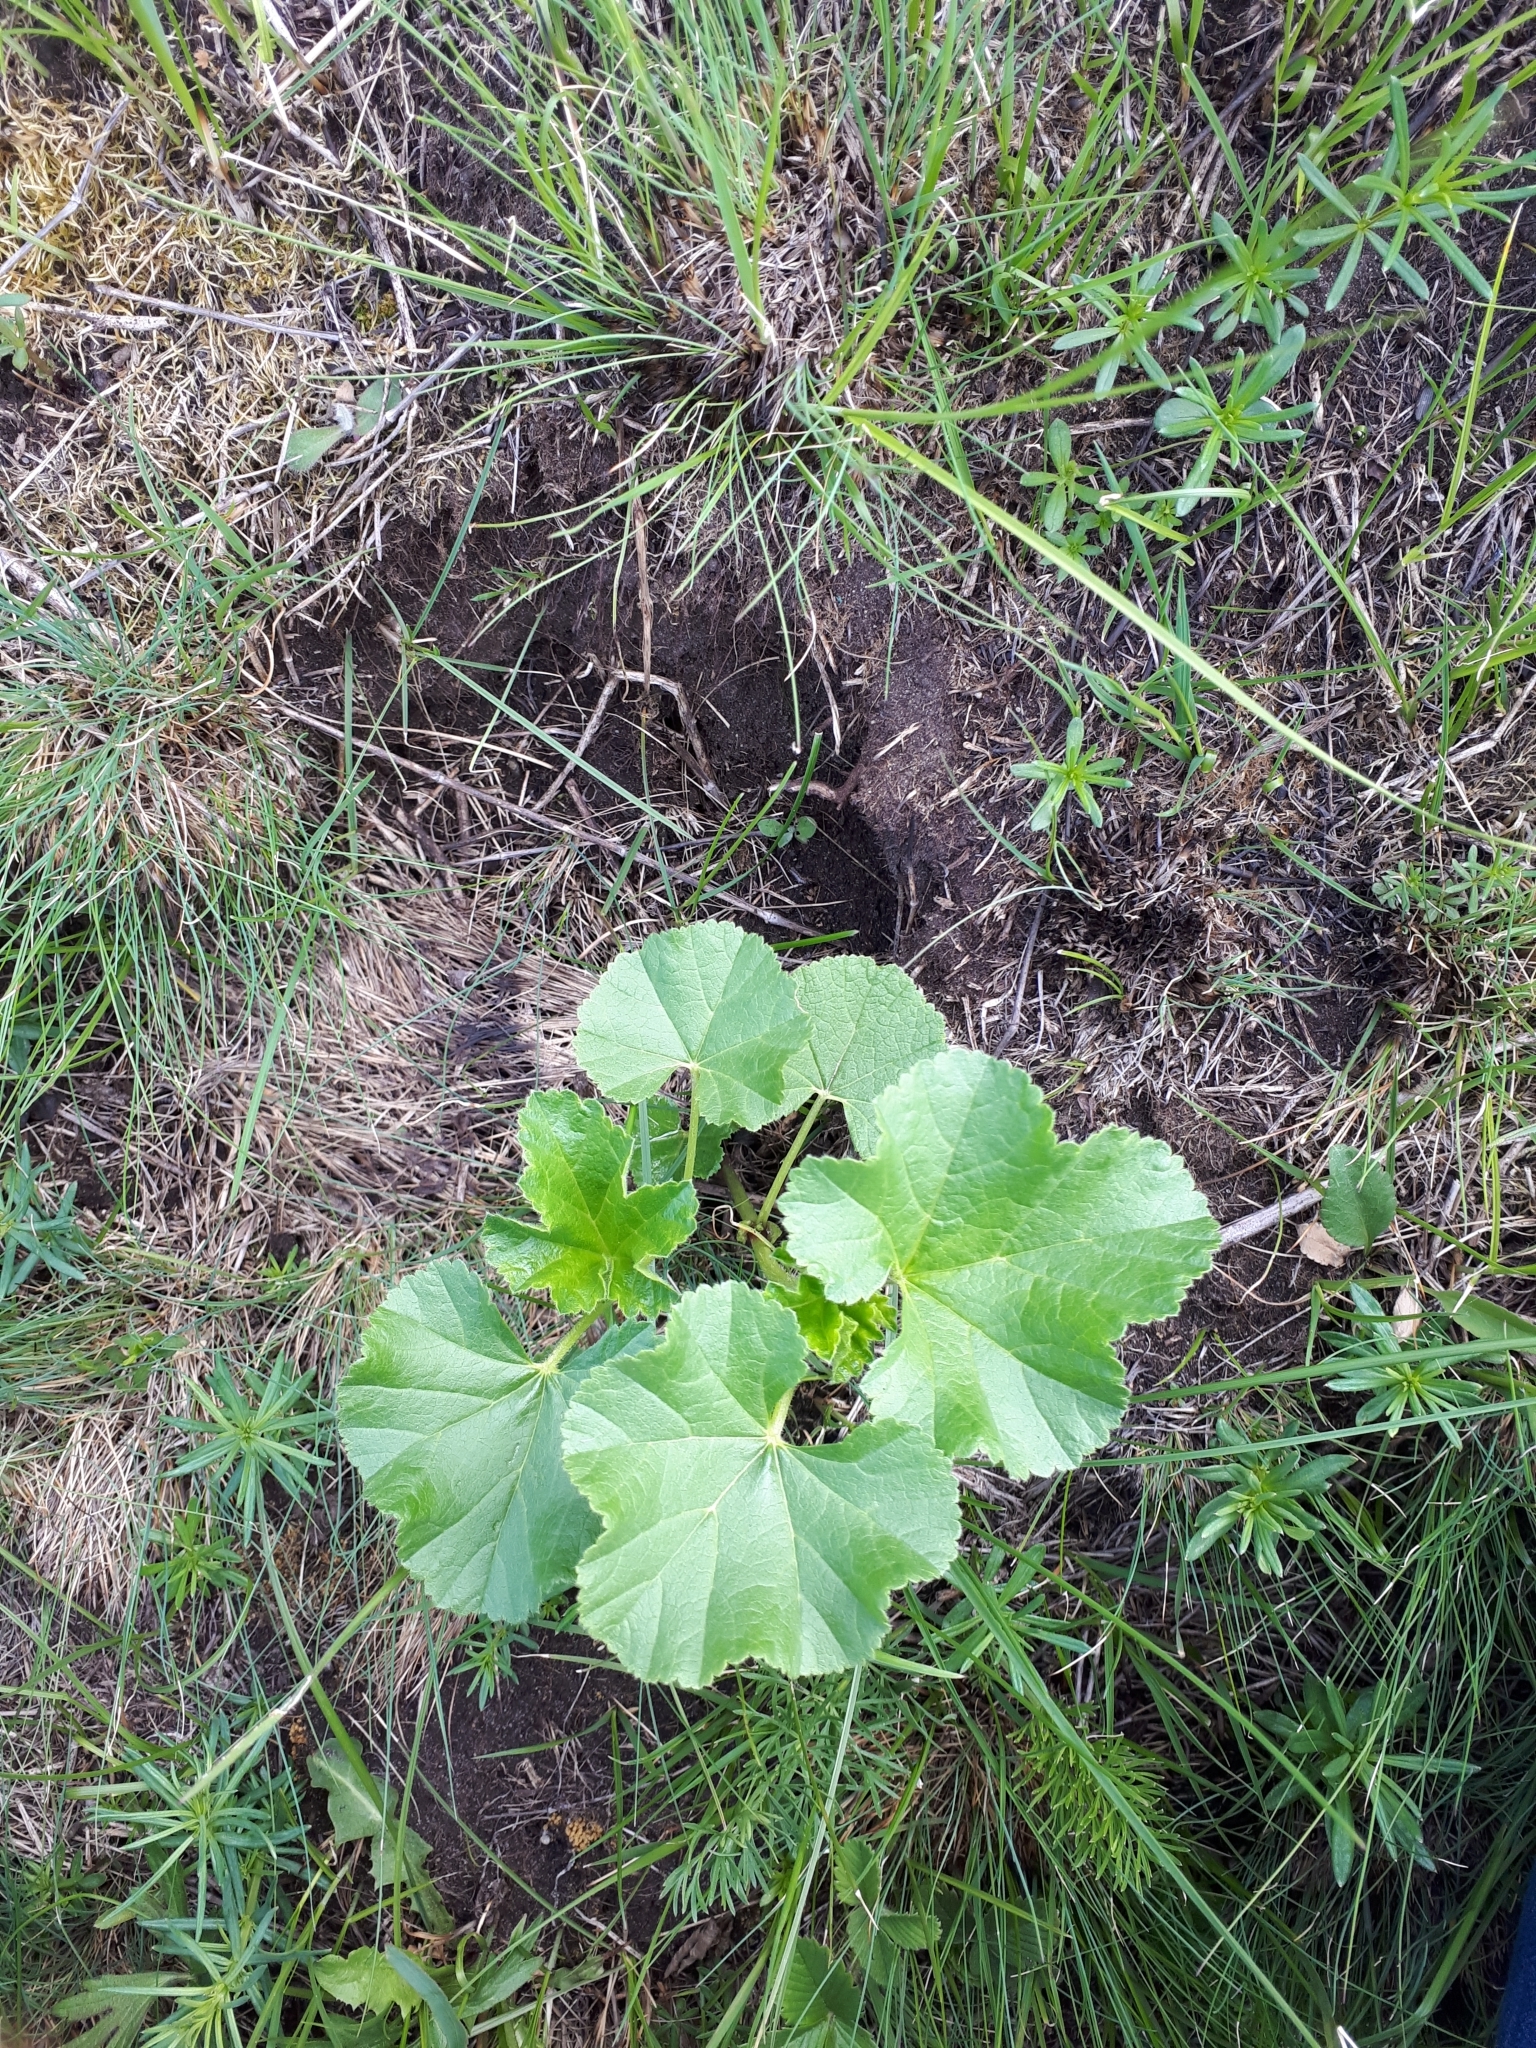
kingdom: Plantae
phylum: Tracheophyta
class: Magnoliopsida
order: Malvales
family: Malvaceae
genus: Malva
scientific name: Malva thuringiaca
